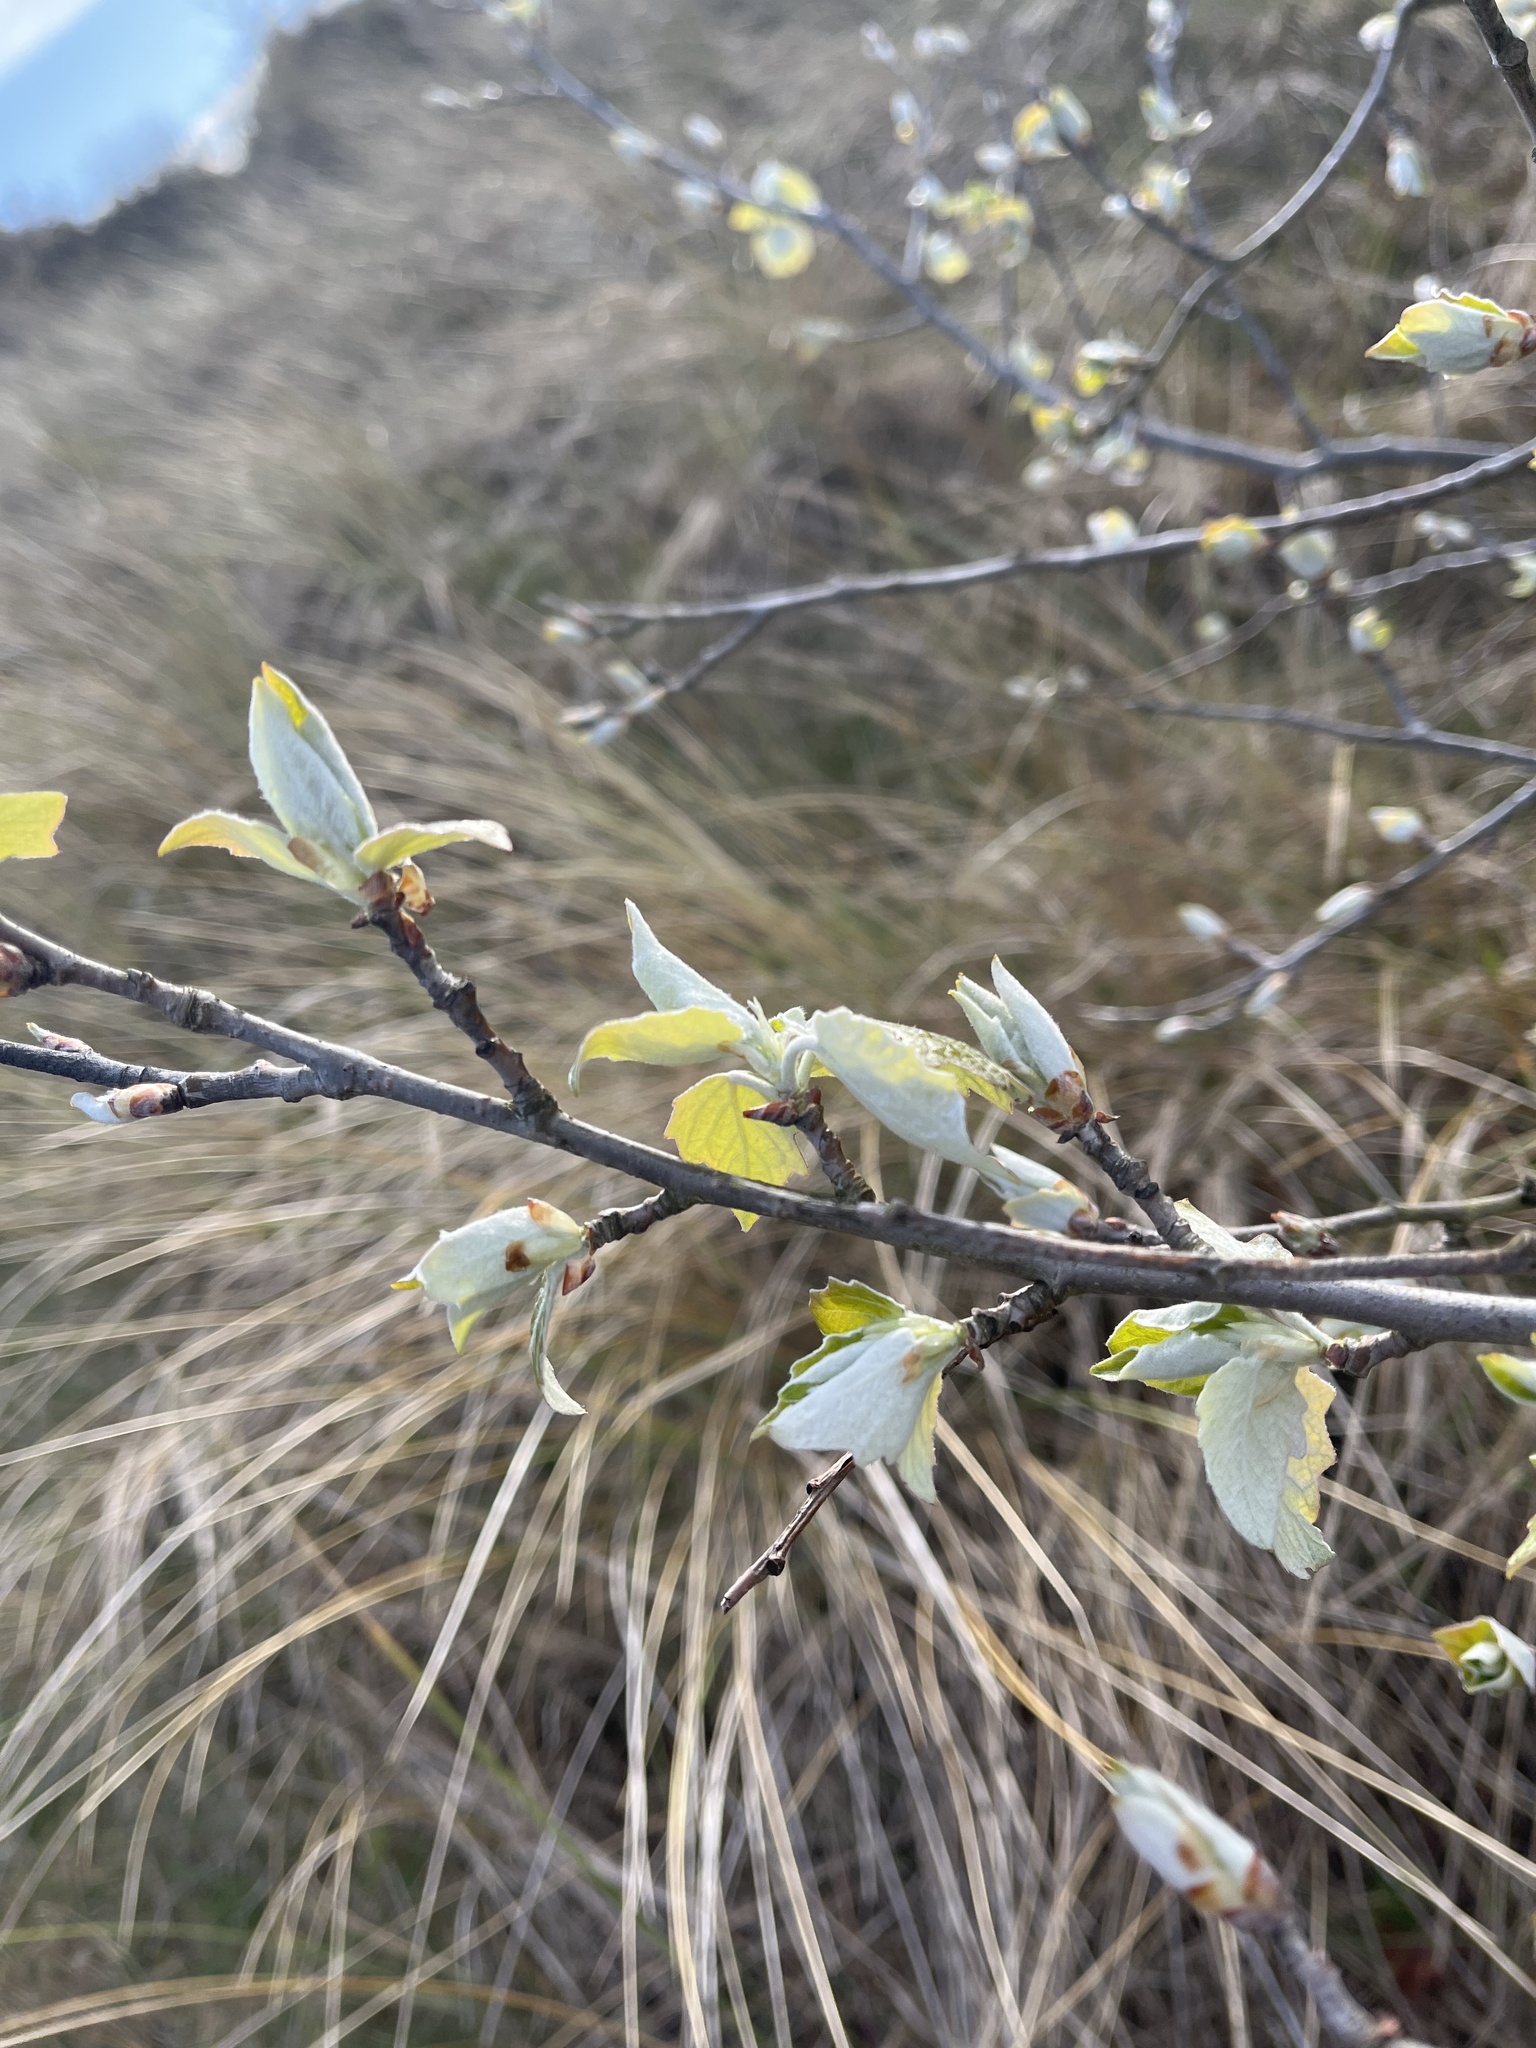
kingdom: Plantae
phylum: Tracheophyta
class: Magnoliopsida
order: Malpighiales
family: Salicaceae
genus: Populus
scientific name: Populus alba
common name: White poplar
